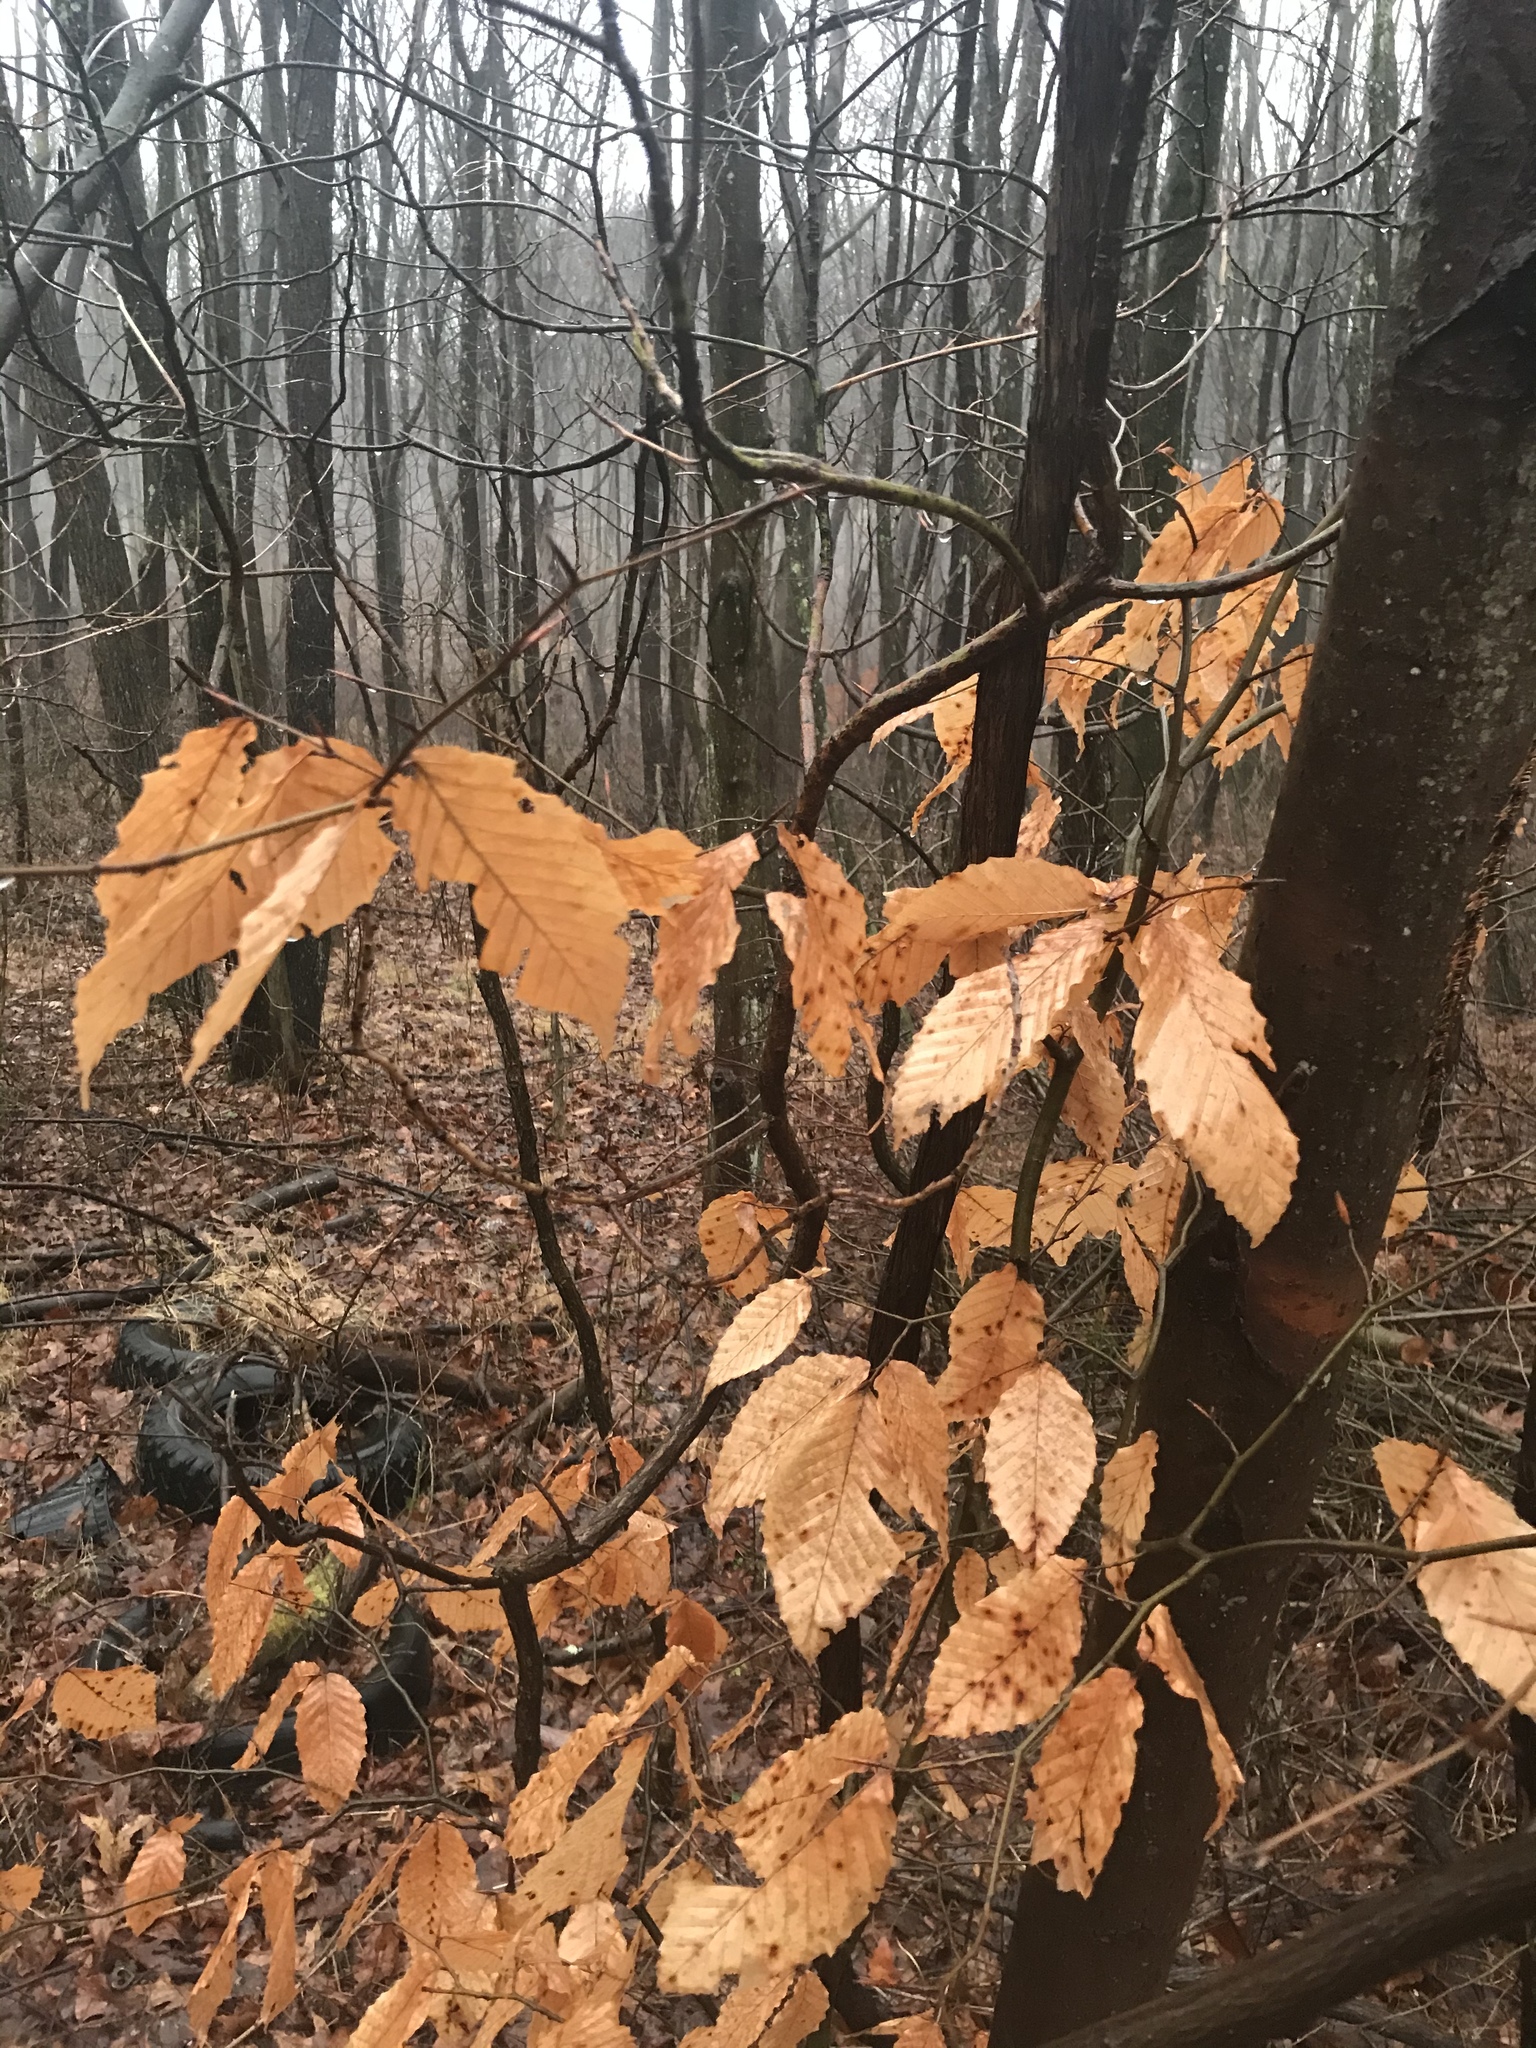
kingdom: Plantae
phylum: Tracheophyta
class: Magnoliopsida
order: Fagales
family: Fagaceae
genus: Fagus
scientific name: Fagus grandifolia
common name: American beech
